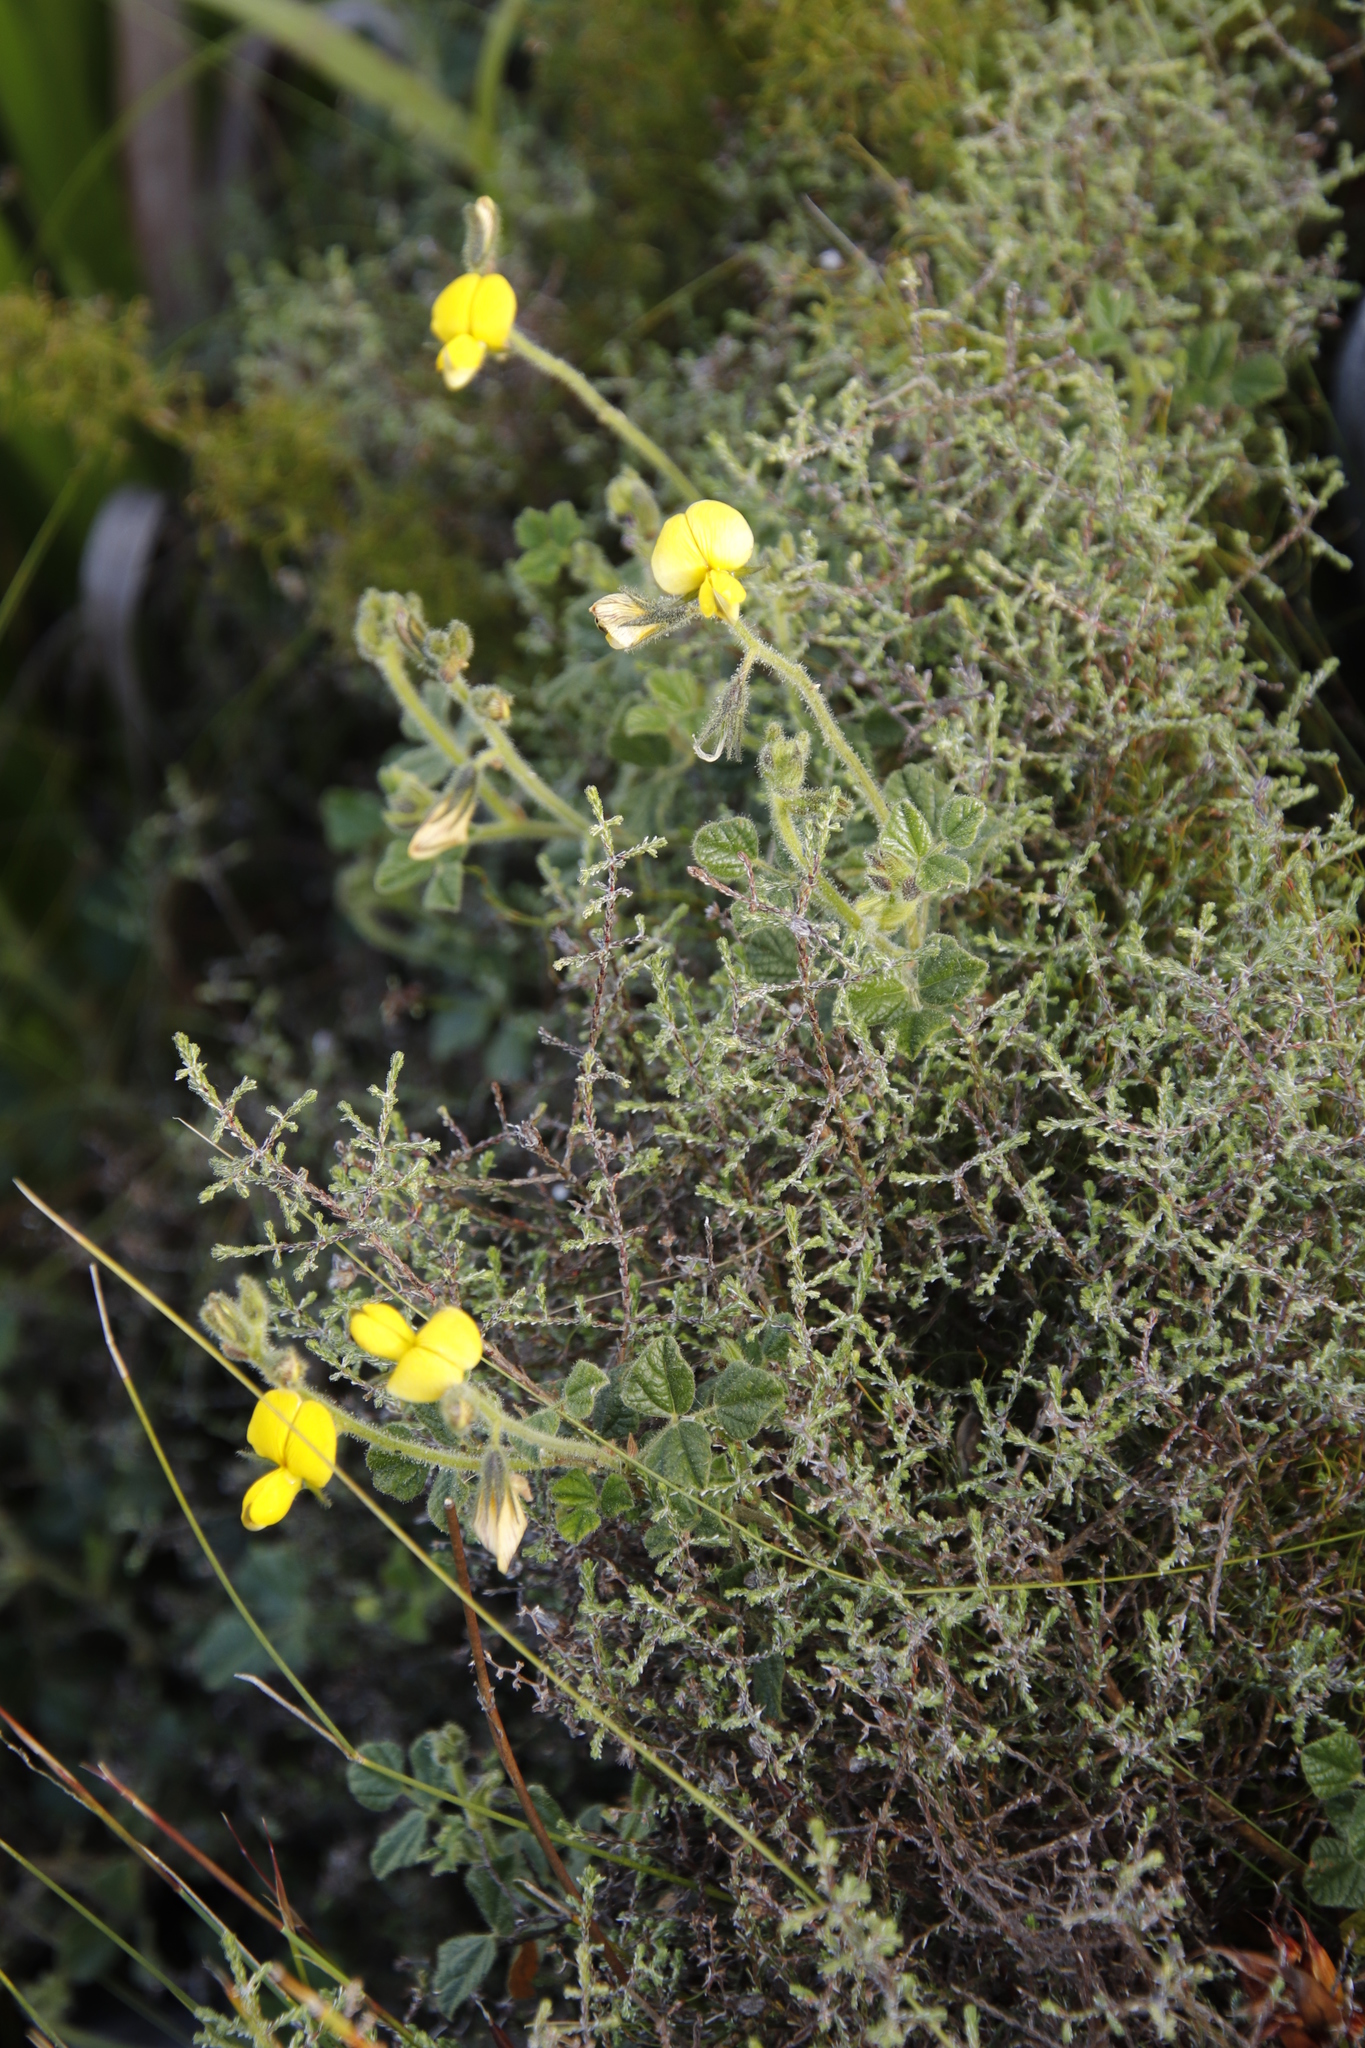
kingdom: Plantae
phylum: Tracheophyta
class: Magnoliopsida
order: Fabales
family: Fabaceae
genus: Bolusafra
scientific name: Bolusafra bituminosa
